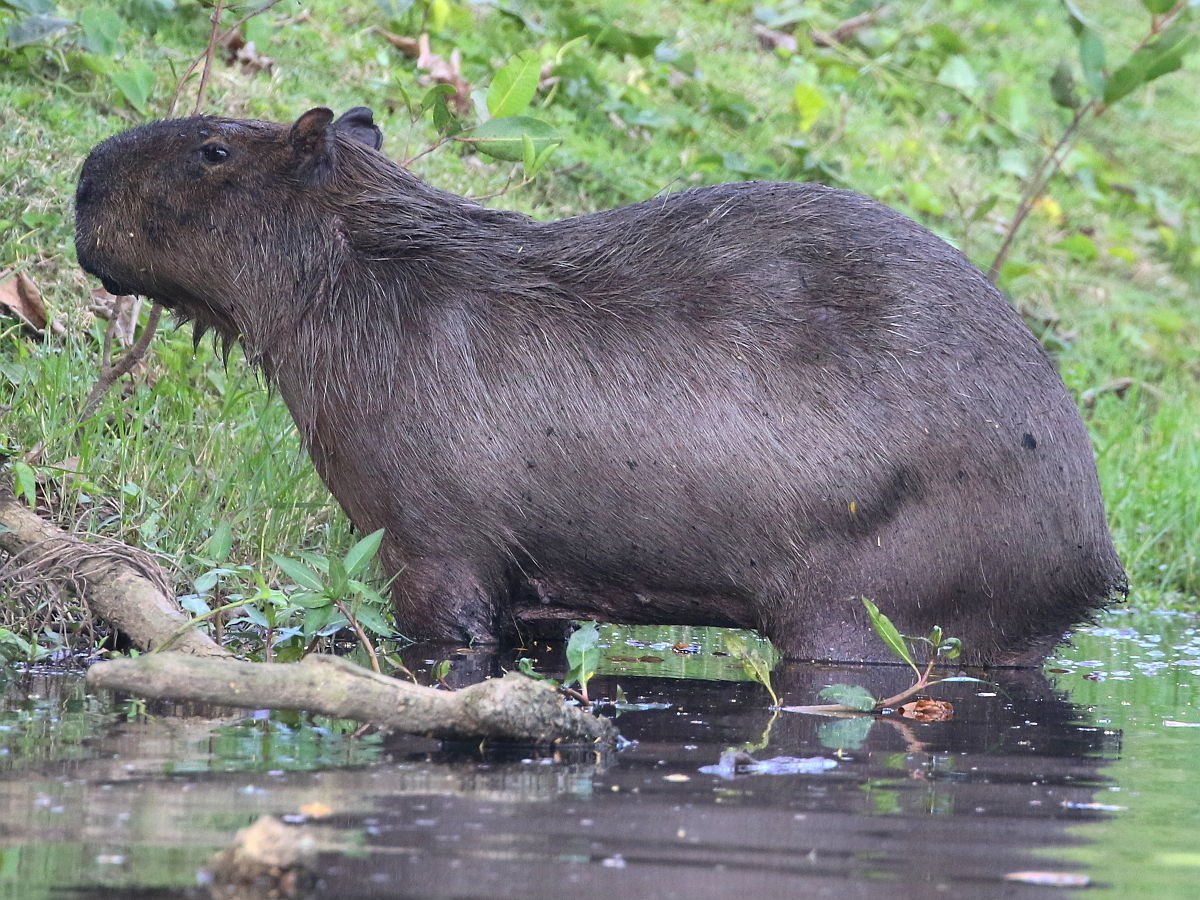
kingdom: Animalia
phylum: Chordata
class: Mammalia
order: Rodentia
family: Caviidae
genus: Hydrochoerus
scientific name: Hydrochoerus hydrochaeris
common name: Capybara
